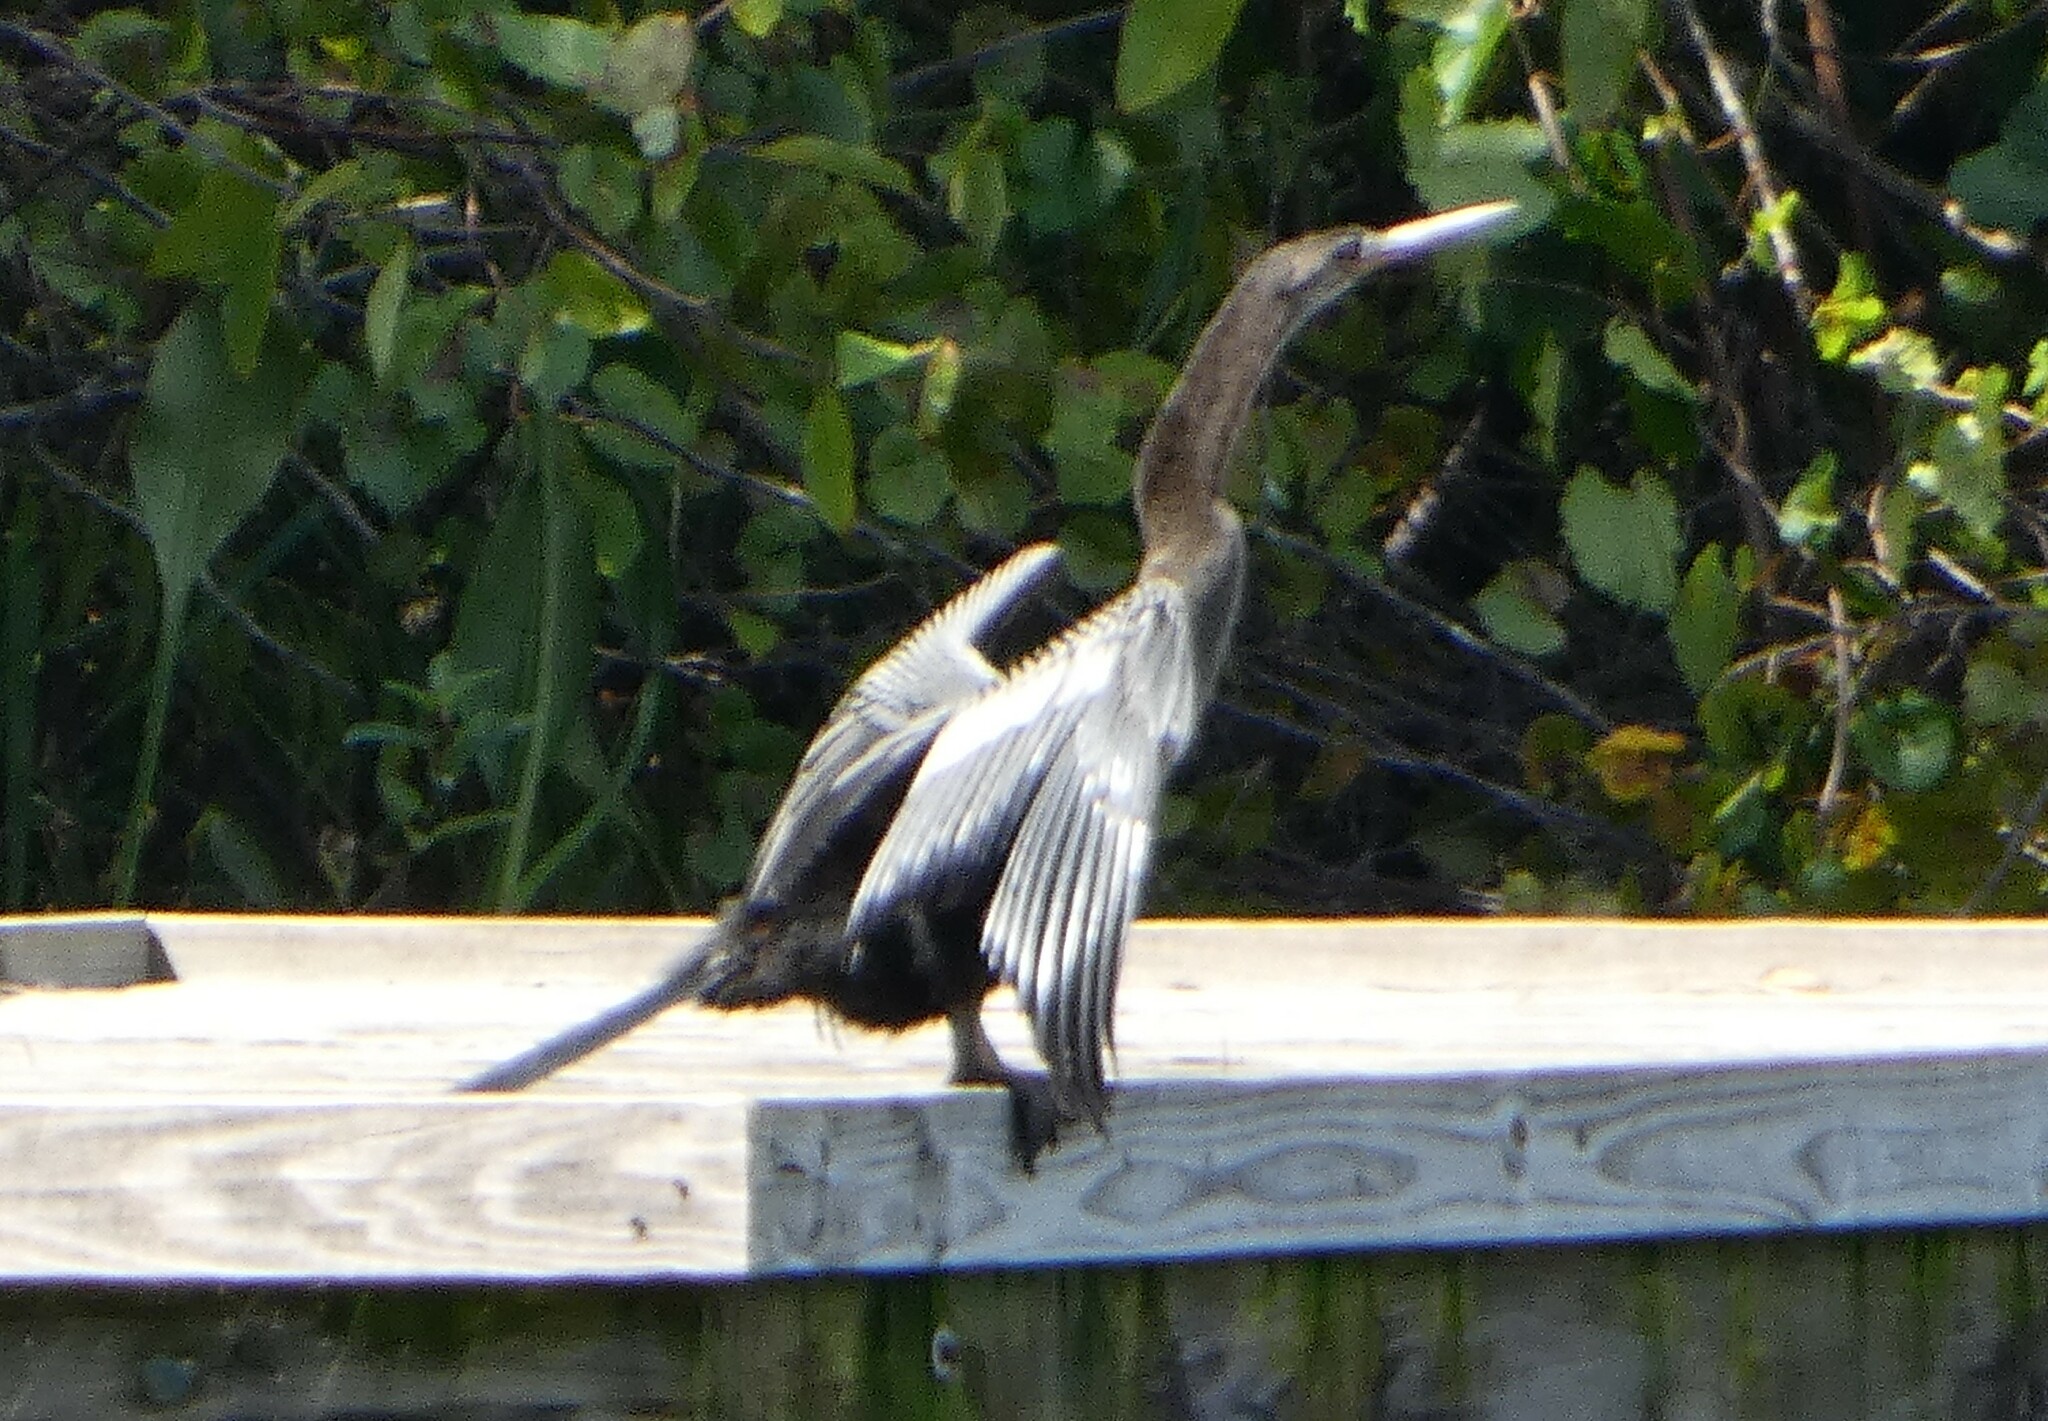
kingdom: Animalia
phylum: Chordata
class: Aves
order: Suliformes
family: Anhingidae
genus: Anhinga
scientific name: Anhinga anhinga
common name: Anhinga
